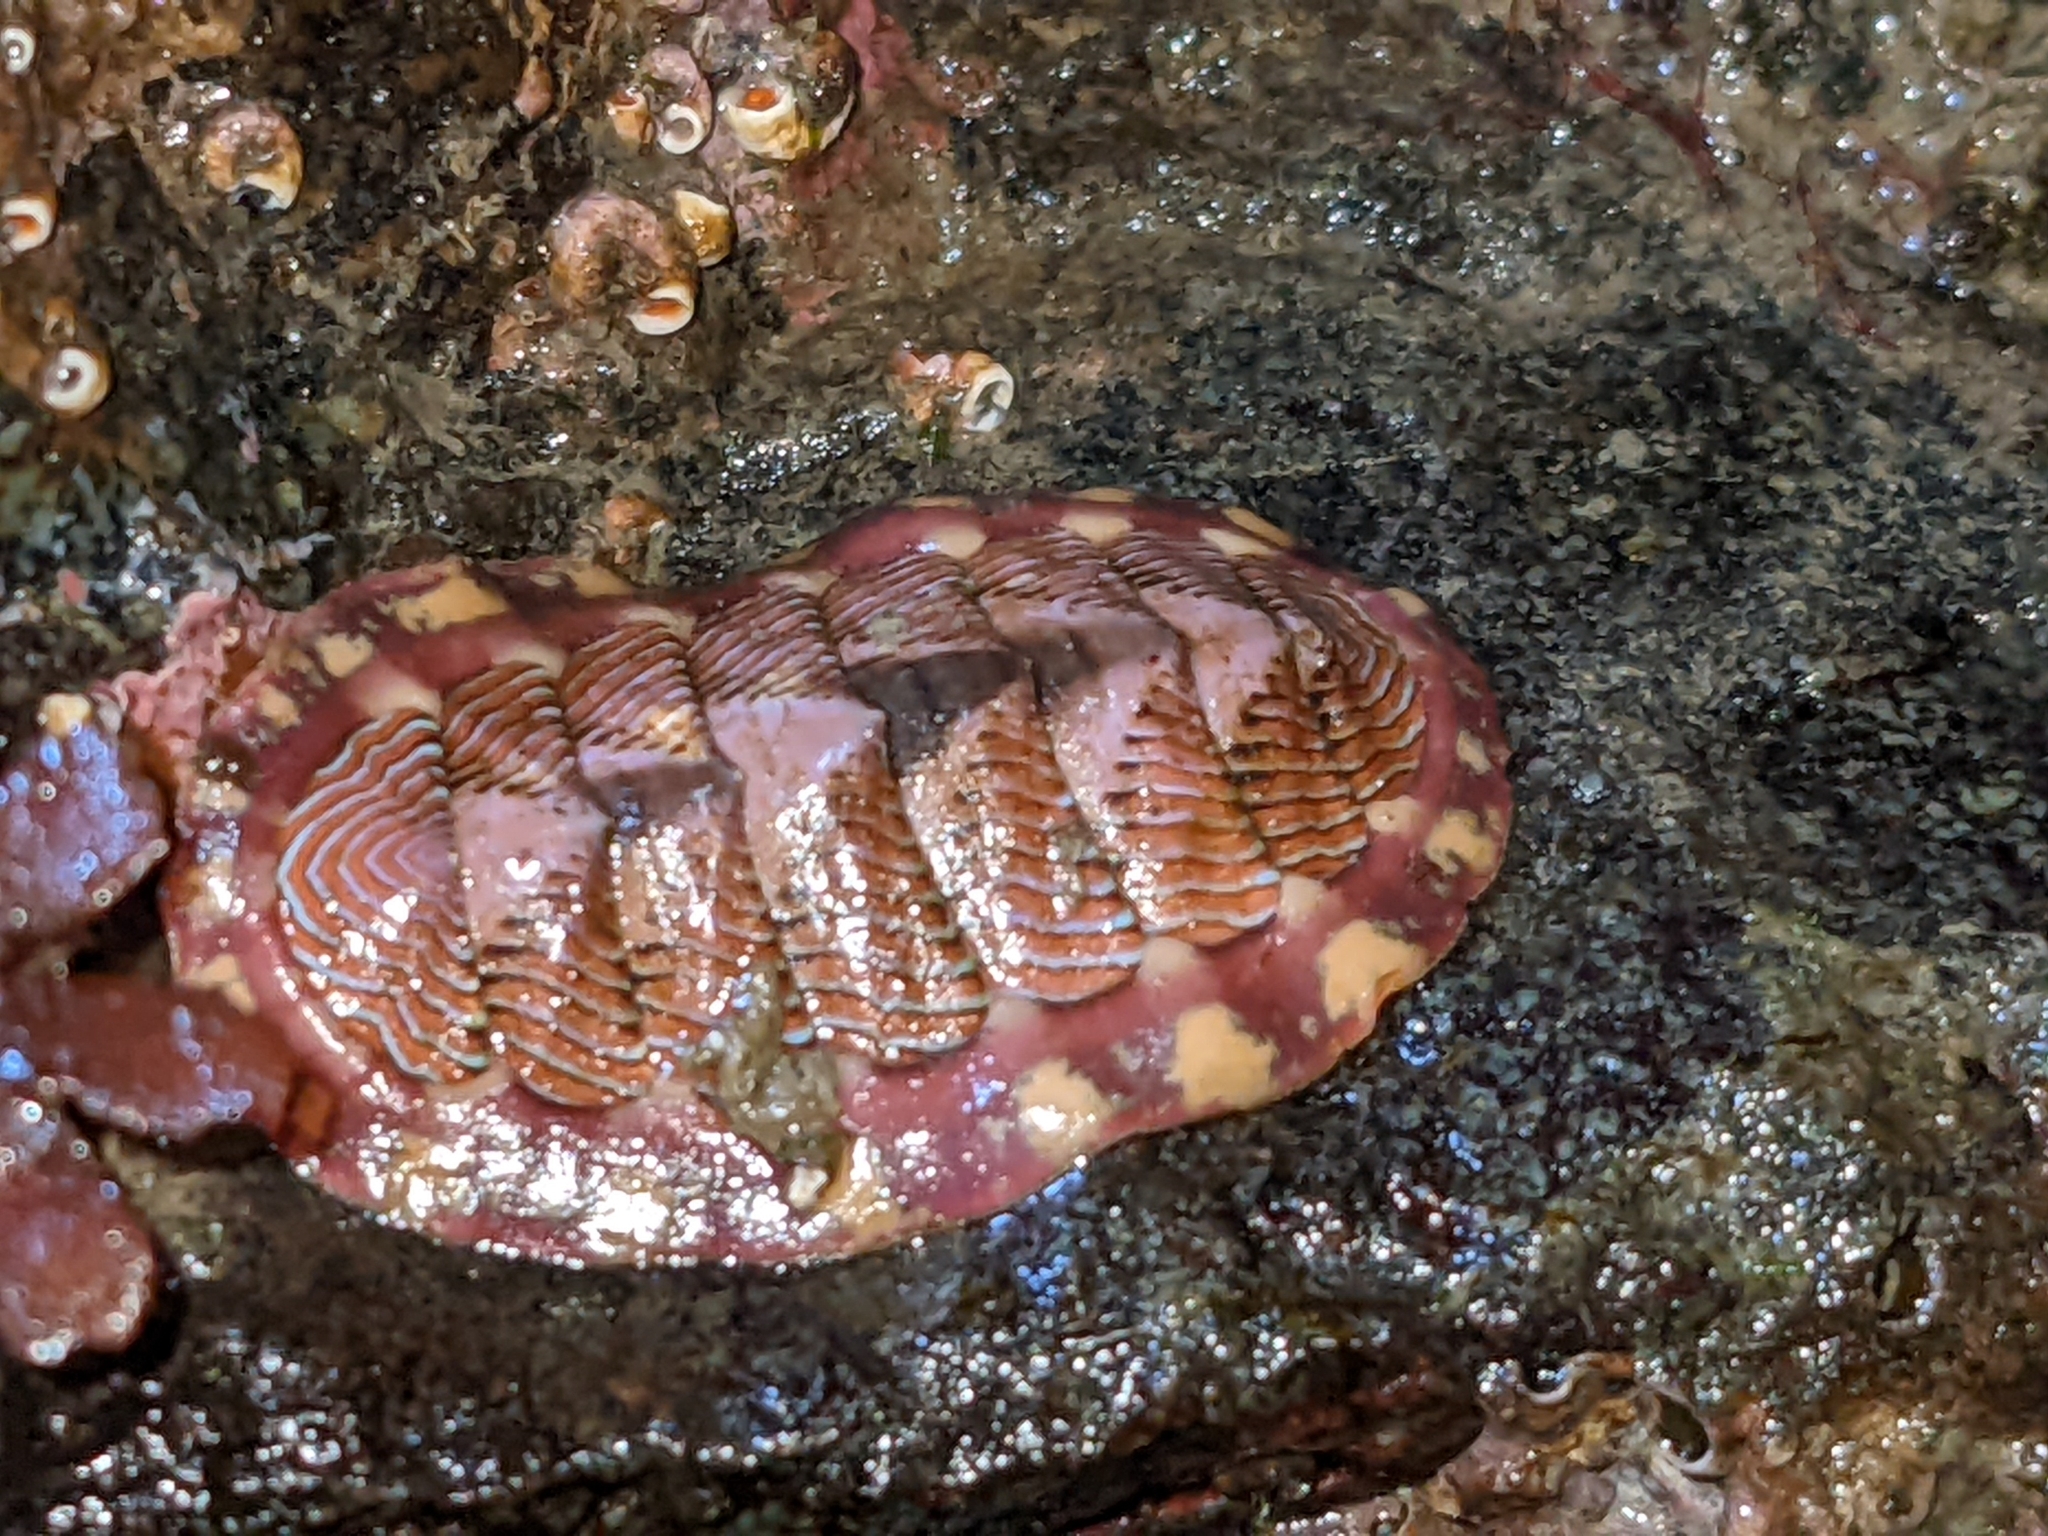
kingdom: Animalia
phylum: Mollusca
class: Polyplacophora
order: Chitonida
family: Tonicellidae
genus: Tonicella
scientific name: Tonicella lineata
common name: Lined chiton
